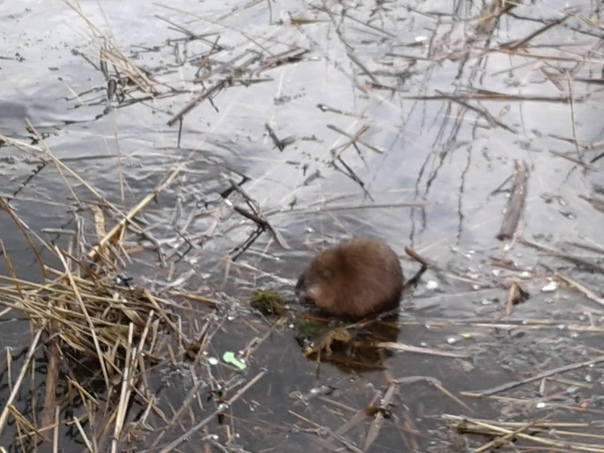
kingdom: Animalia
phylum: Chordata
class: Mammalia
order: Rodentia
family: Cricetidae
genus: Ondatra
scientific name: Ondatra zibethicus
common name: Muskrat
